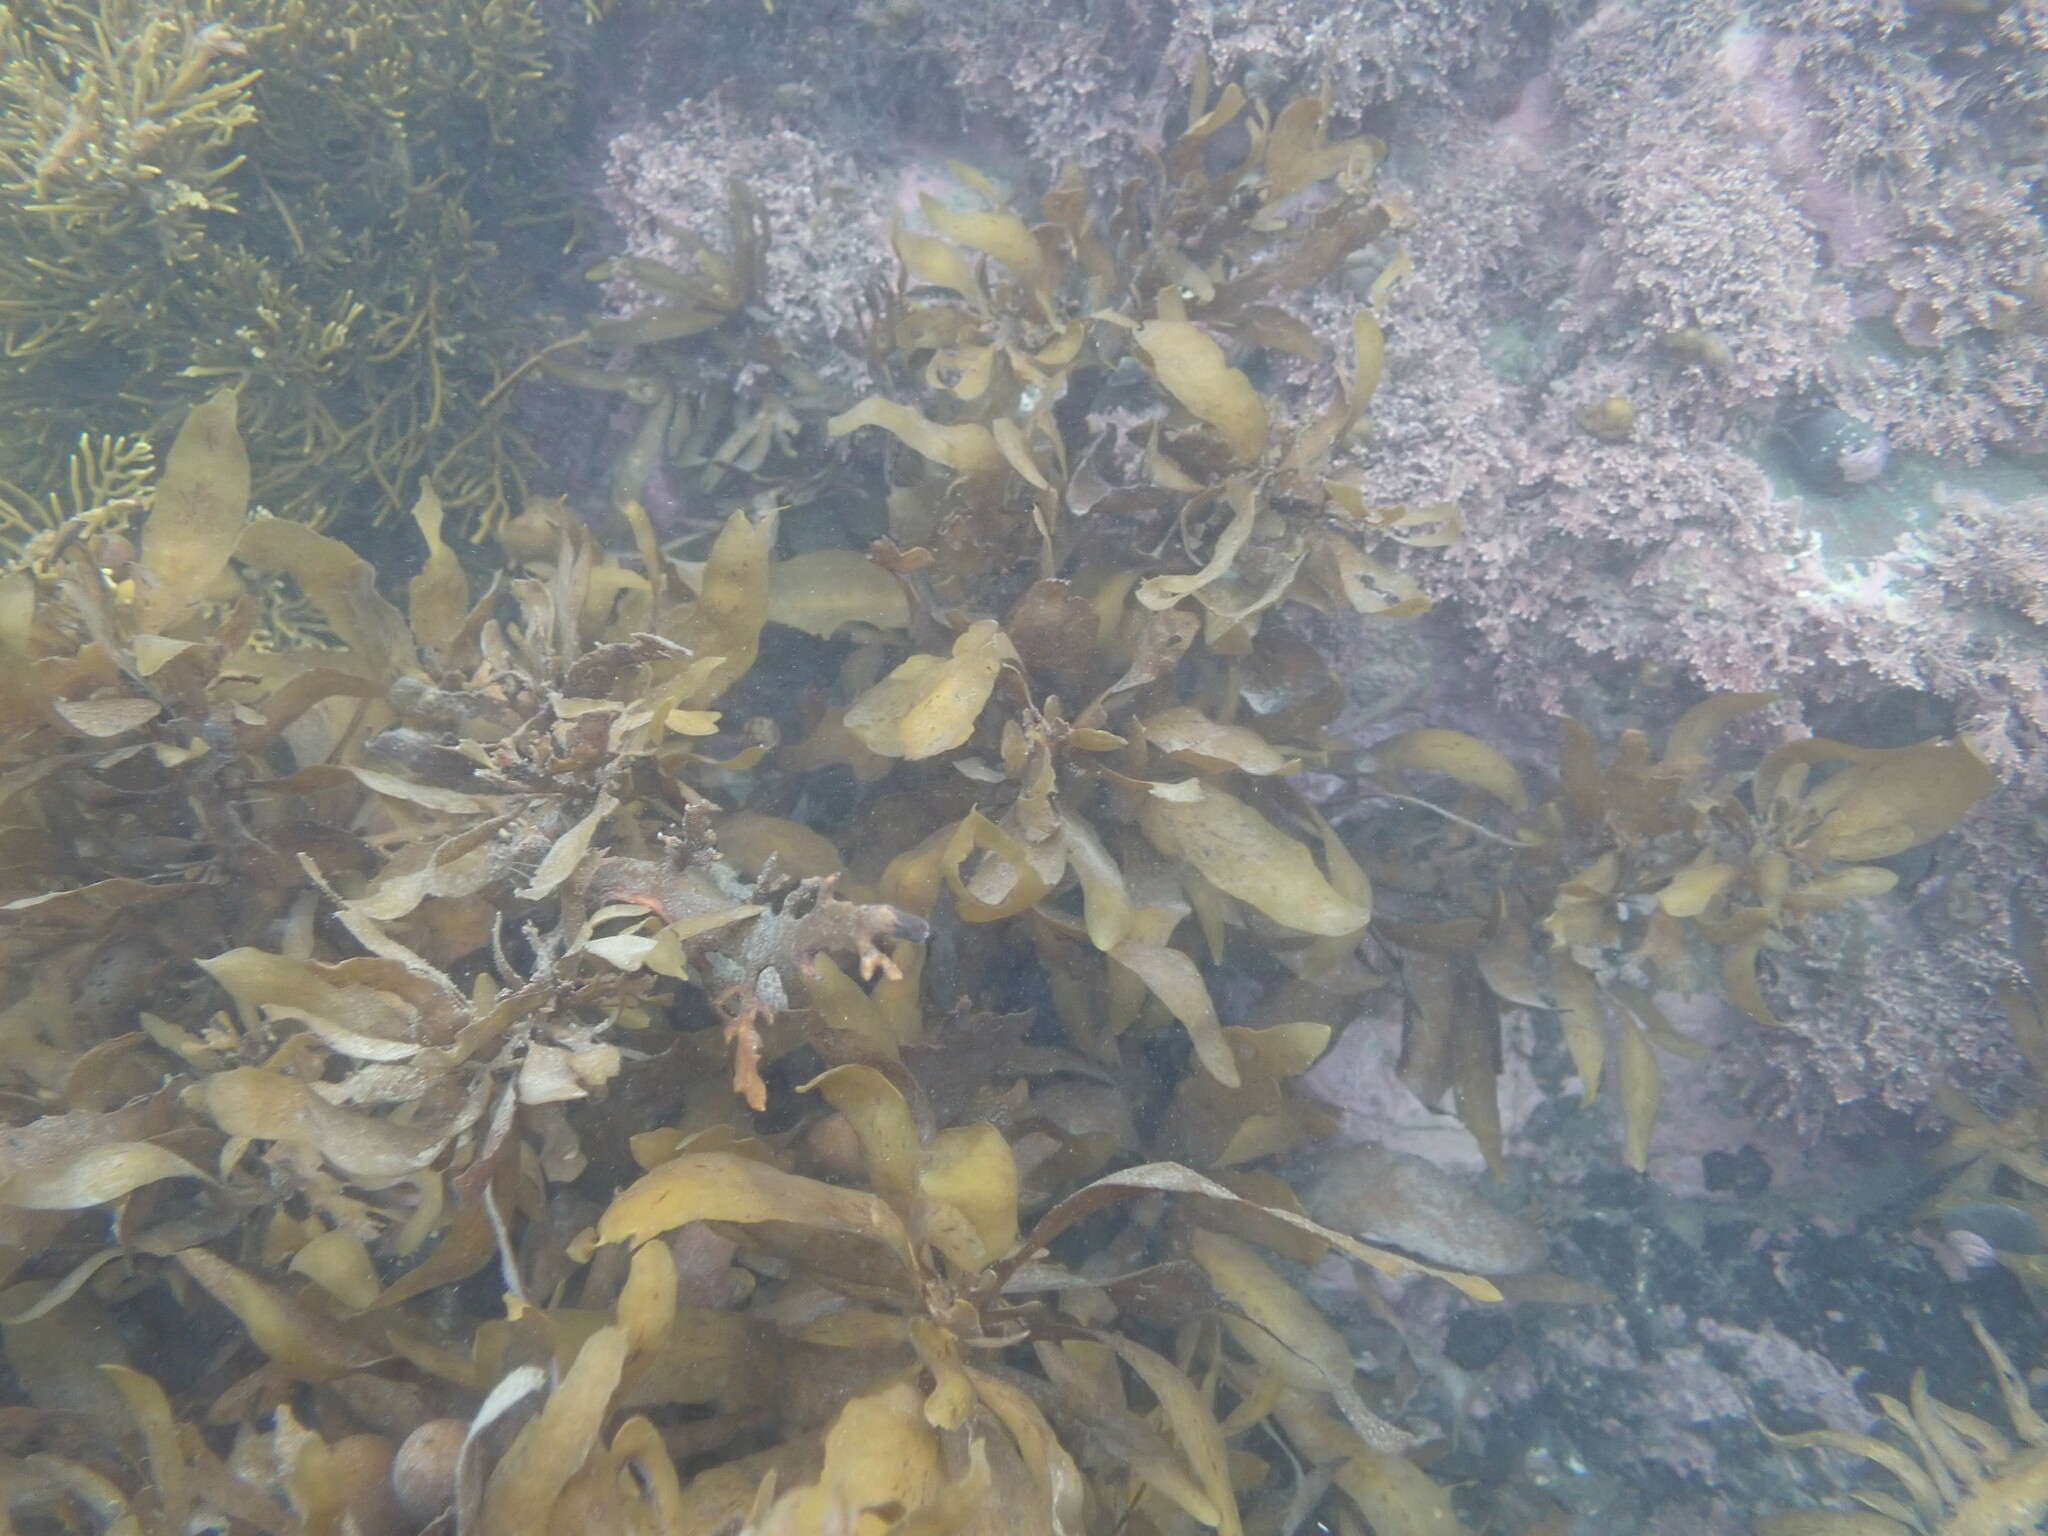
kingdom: Chromista
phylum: Ochrophyta
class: Phaeophyceae
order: Fucales
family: Sargassaceae
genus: Carpophyllum
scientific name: Carpophyllum flexuosum
